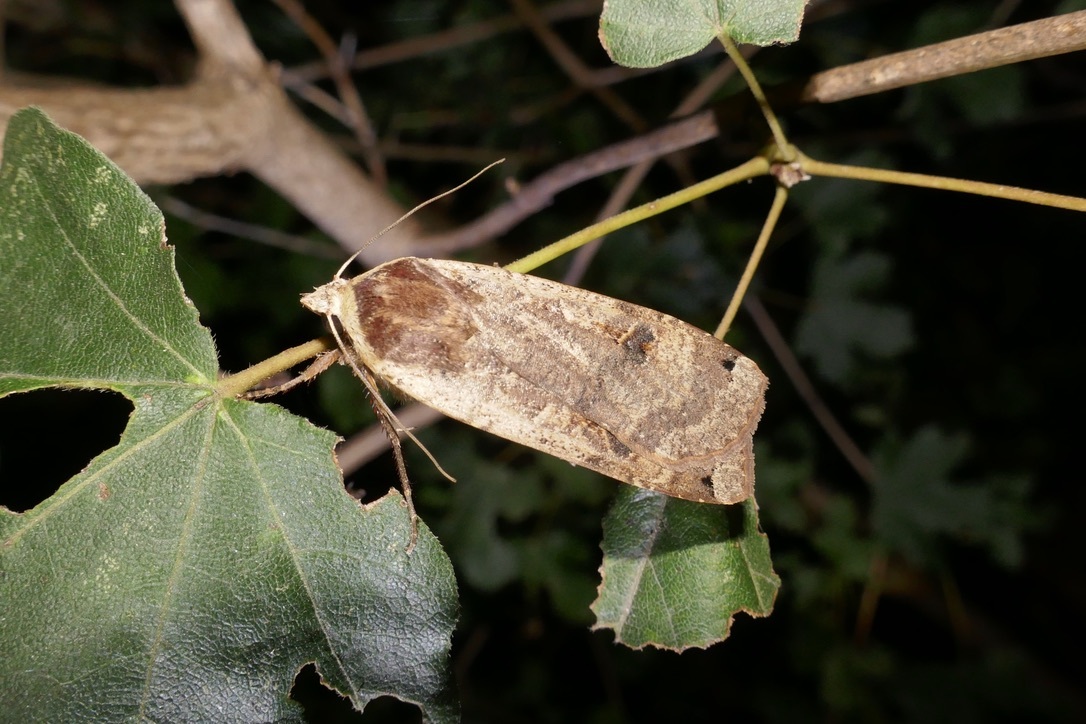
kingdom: Animalia
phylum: Arthropoda
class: Insecta
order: Lepidoptera
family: Noctuidae
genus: Noctua
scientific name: Noctua pronuba
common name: Large yellow underwing
